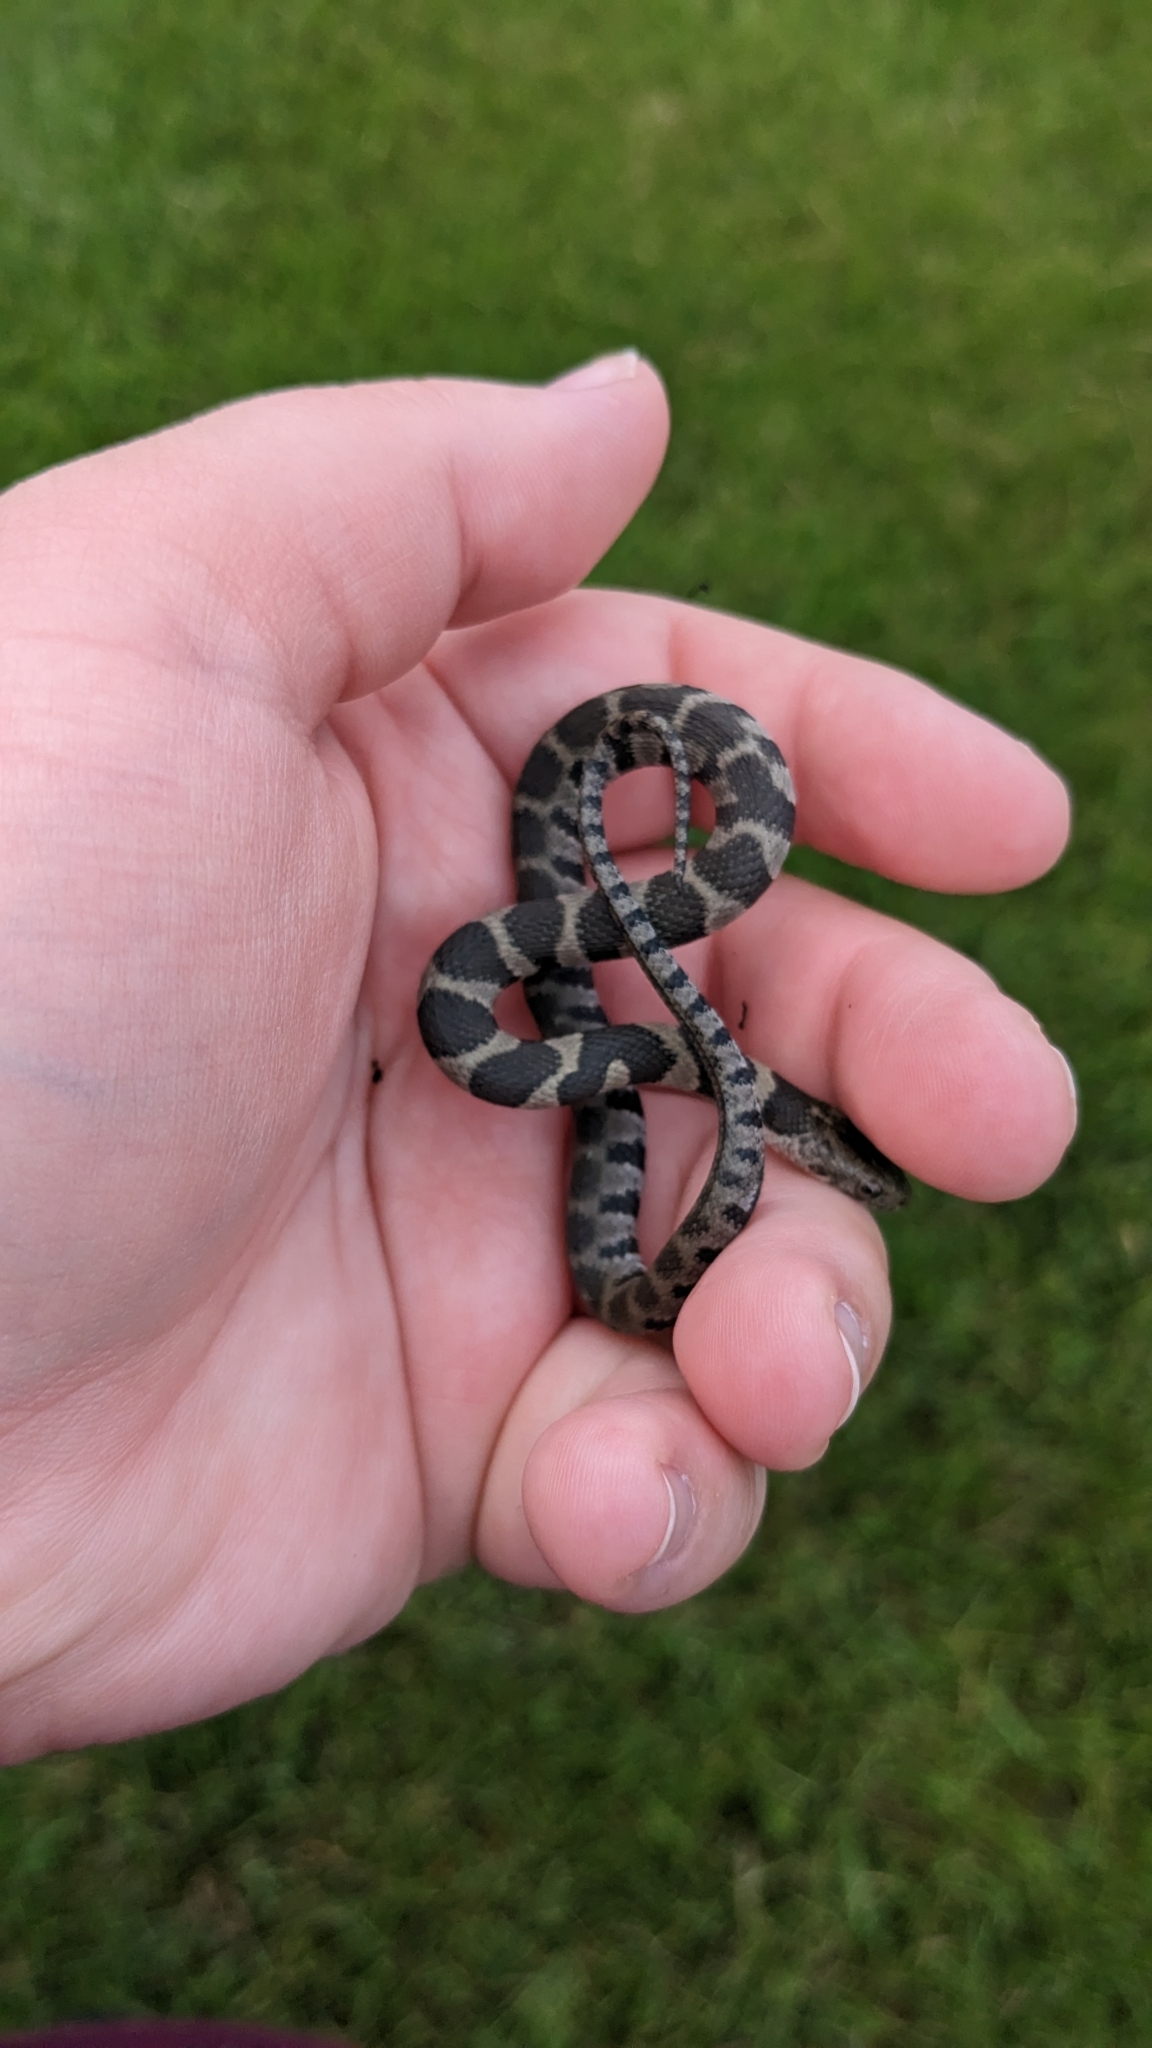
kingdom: Animalia
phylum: Chordata
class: Squamata
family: Colubridae
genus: Nerodia
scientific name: Nerodia sipedon
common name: Northern water snake
